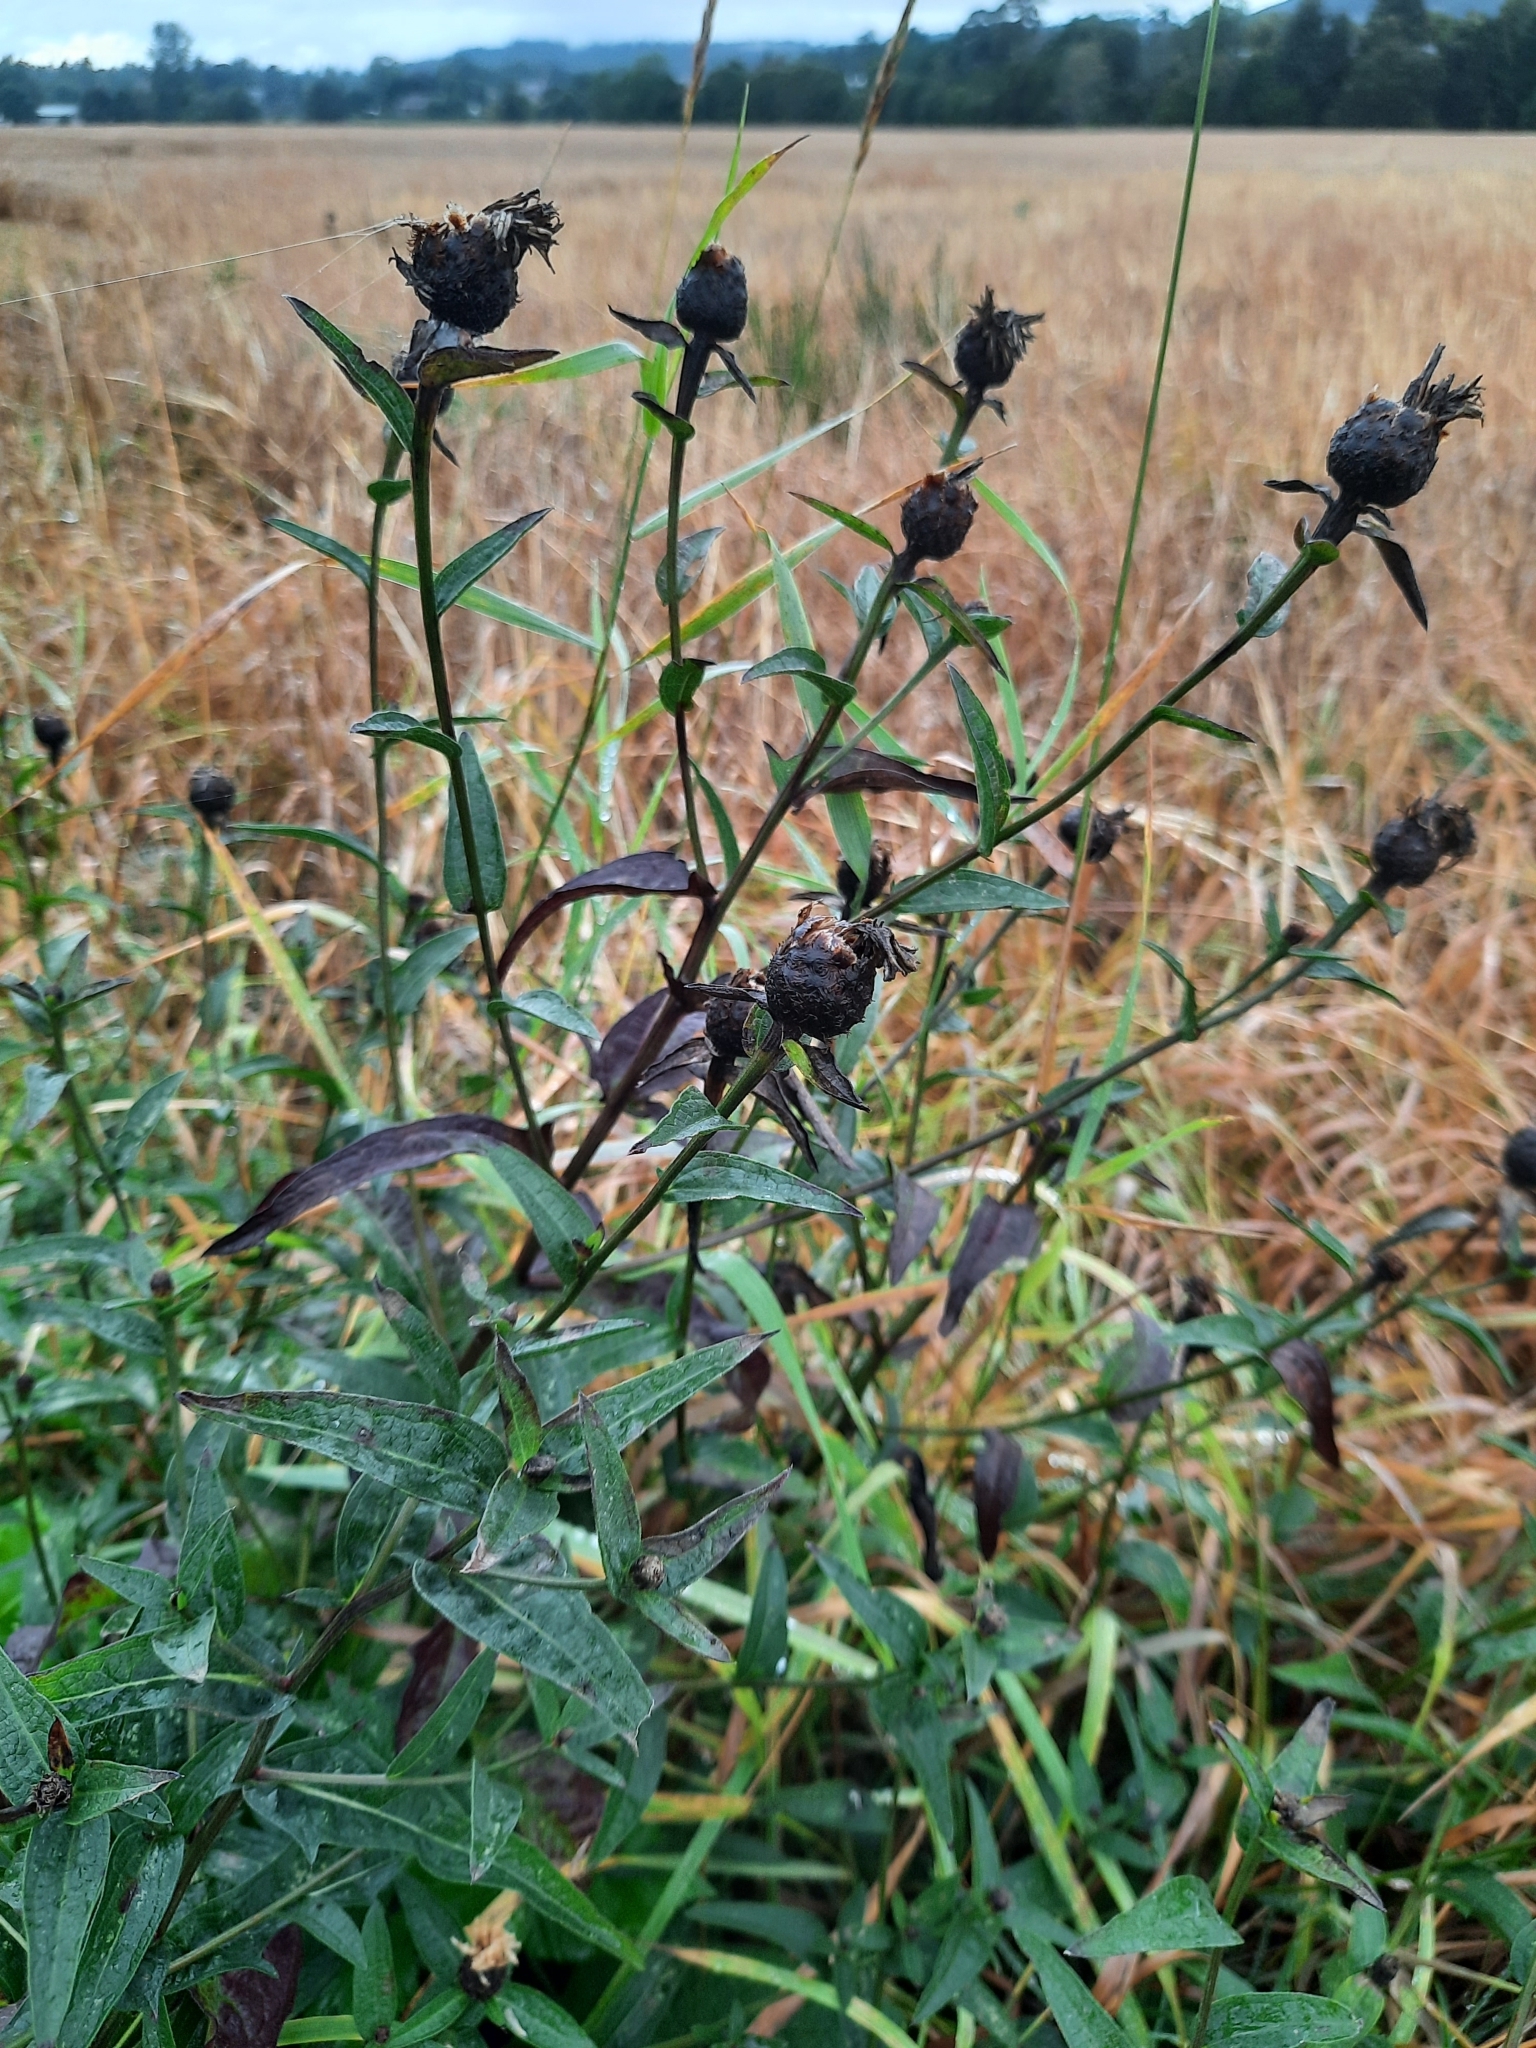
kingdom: Plantae
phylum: Tracheophyta
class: Magnoliopsida
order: Asterales
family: Asteraceae
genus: Centaurea
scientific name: Centaurea nigra
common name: Lesser knapweed
